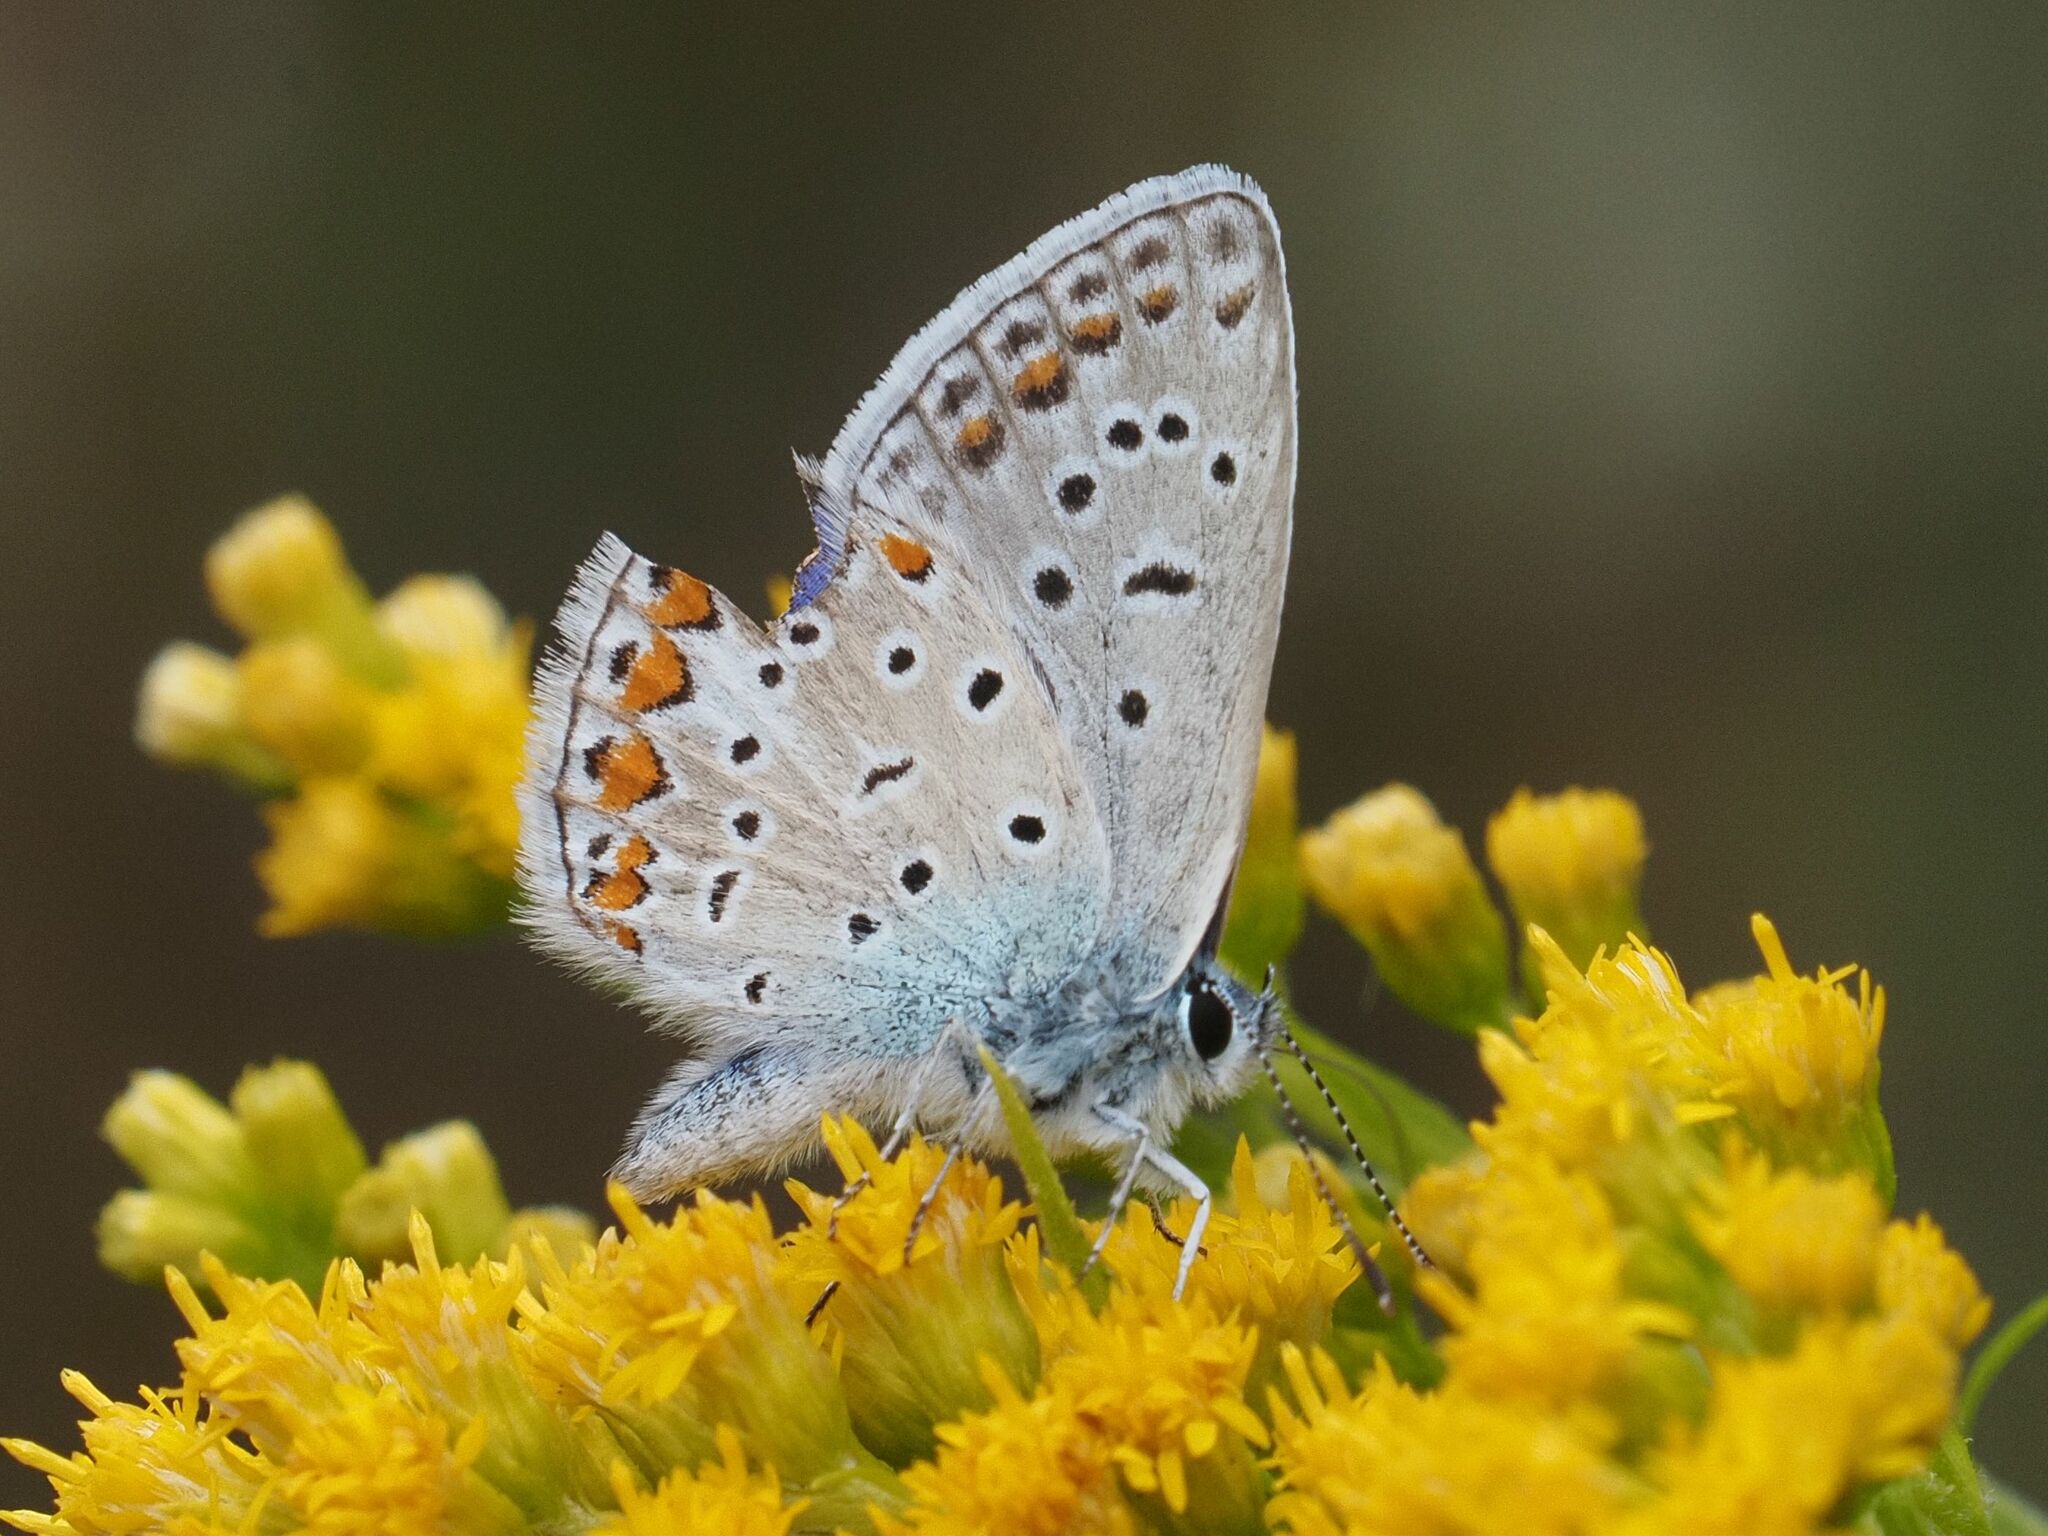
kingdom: Animalia
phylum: Arthropoda
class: Insecta
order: Lepidoptera
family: Lycaenidae
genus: Polyommatus
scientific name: Polyommatus icarus
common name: Common blue
